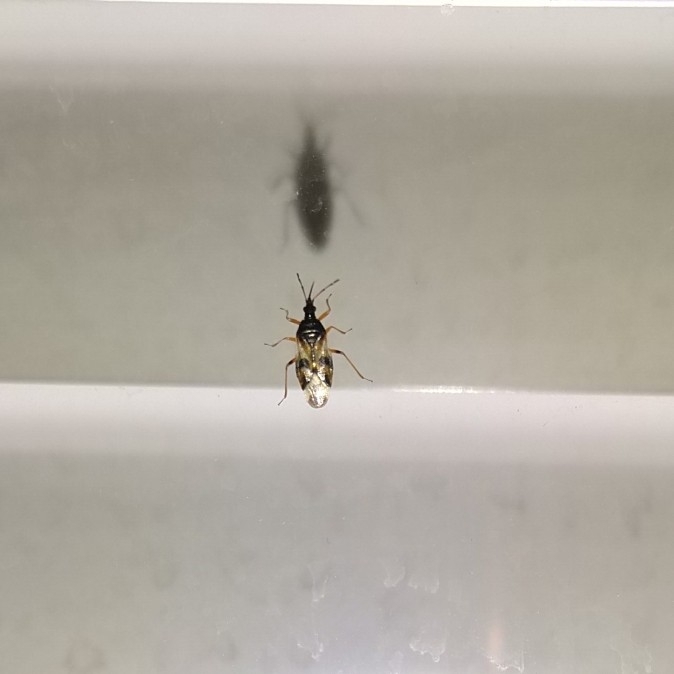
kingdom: Animalia
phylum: Arthropoda
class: Insecta
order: Hemiptera
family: Anthocoridae
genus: Anthocoris
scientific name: Anthocoris nemorum
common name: Minute pirate bug
